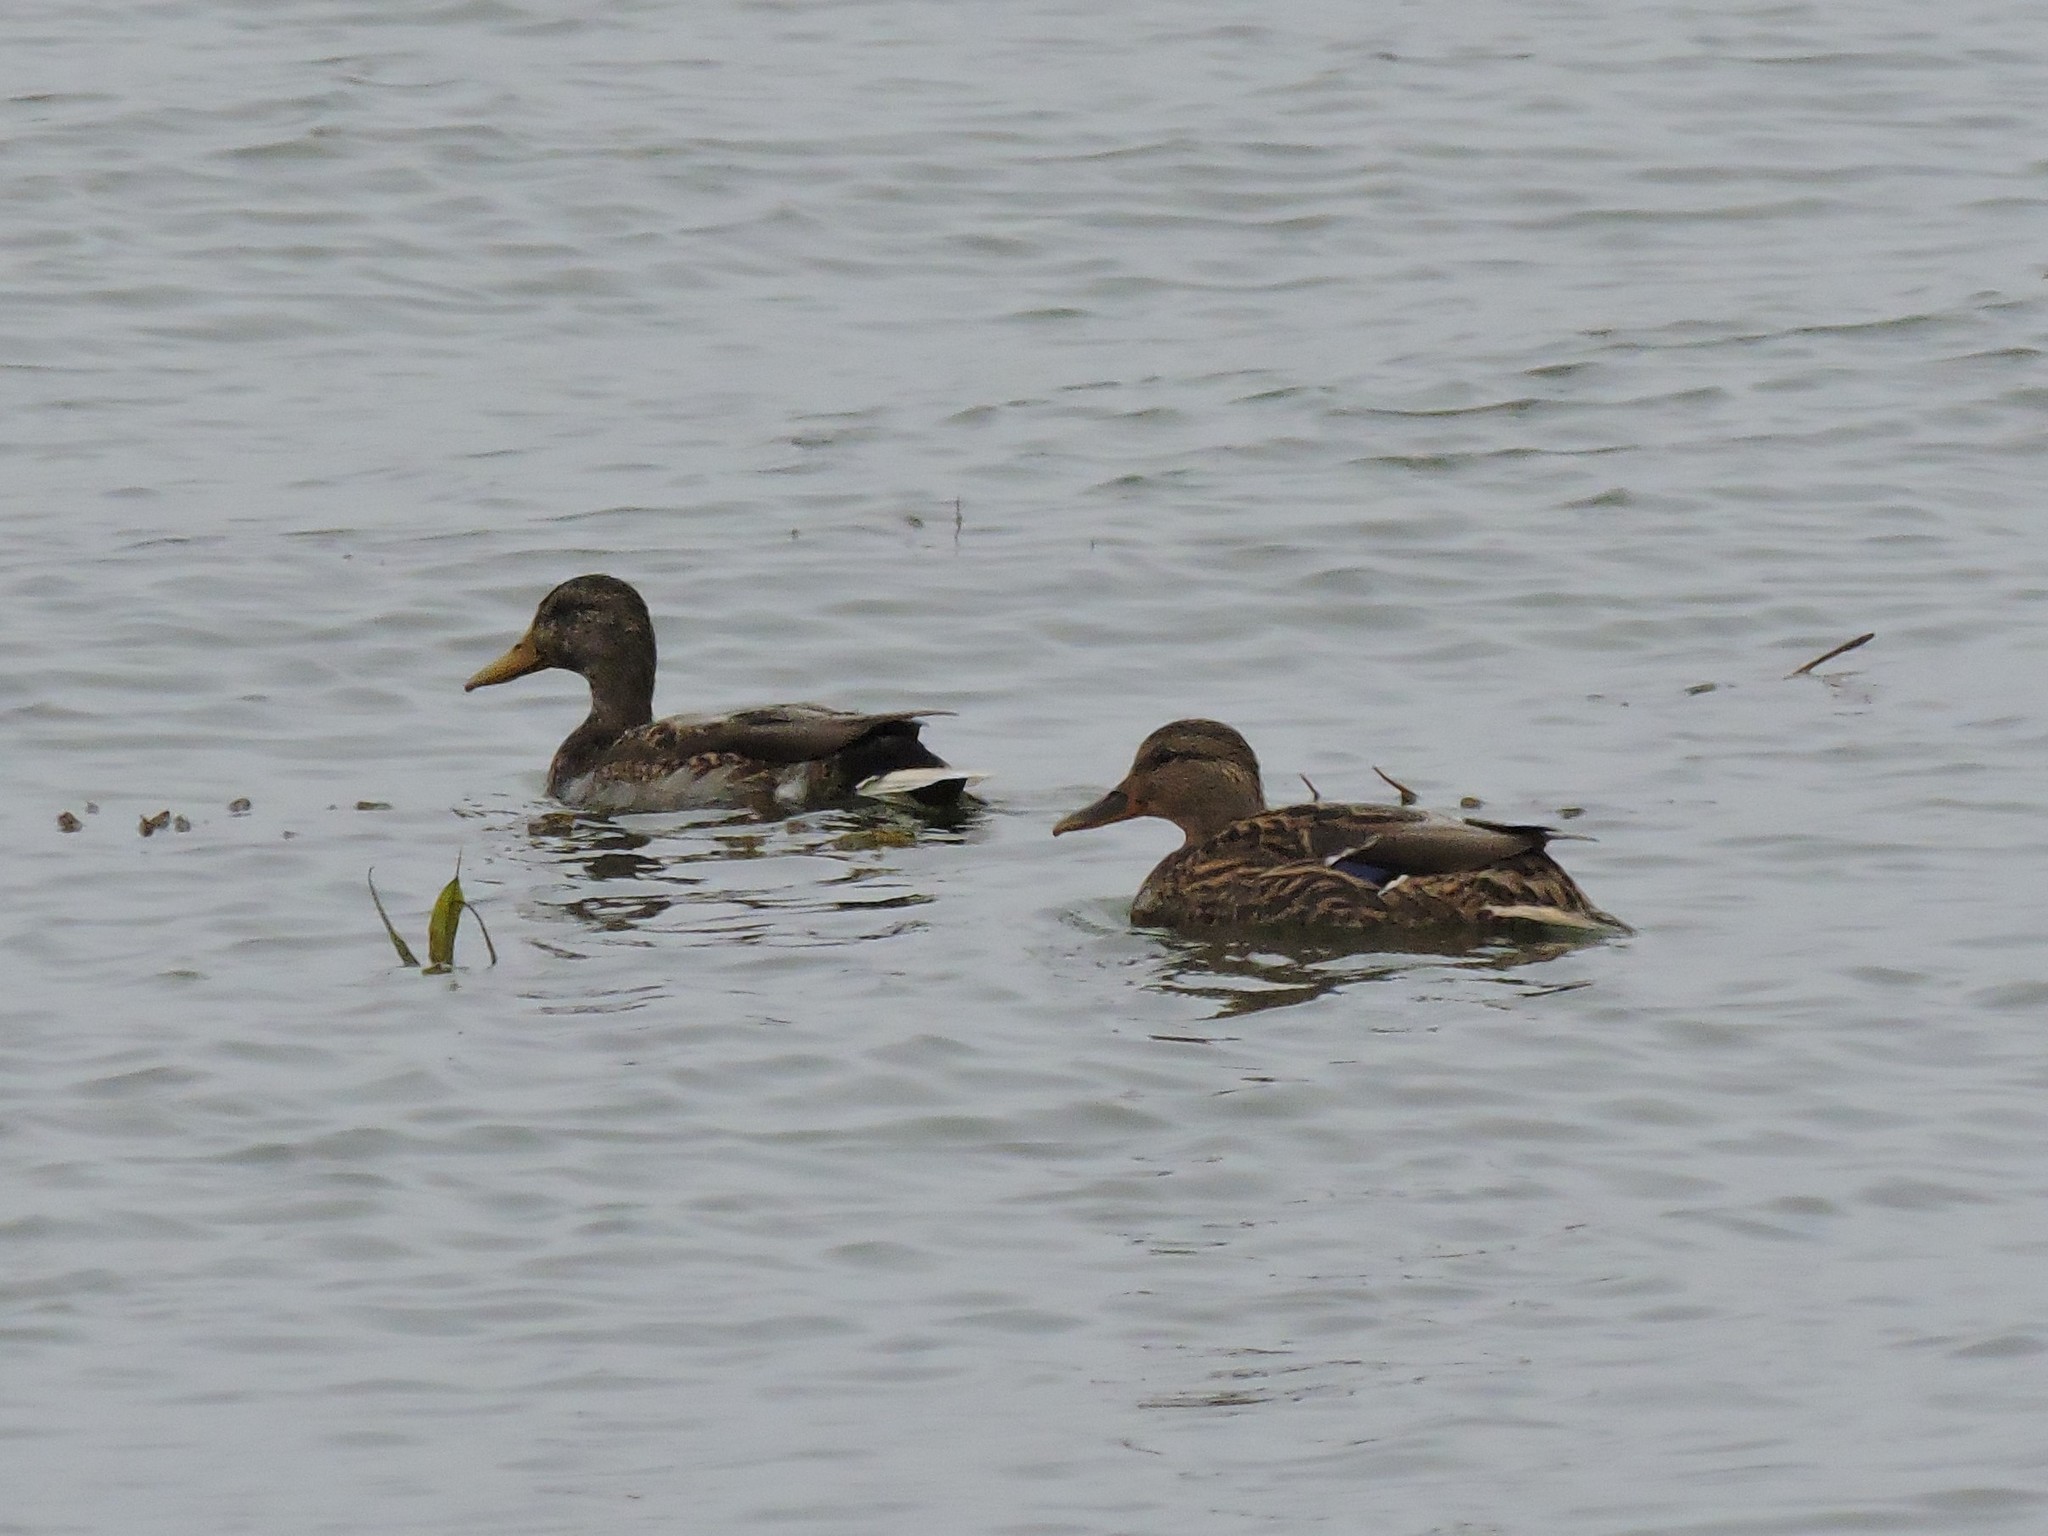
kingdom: Animalia
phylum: Chordata
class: Aves
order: Anseriformes
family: Anatidae
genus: Anas
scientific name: Anas platyrhynchos
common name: Mallard
